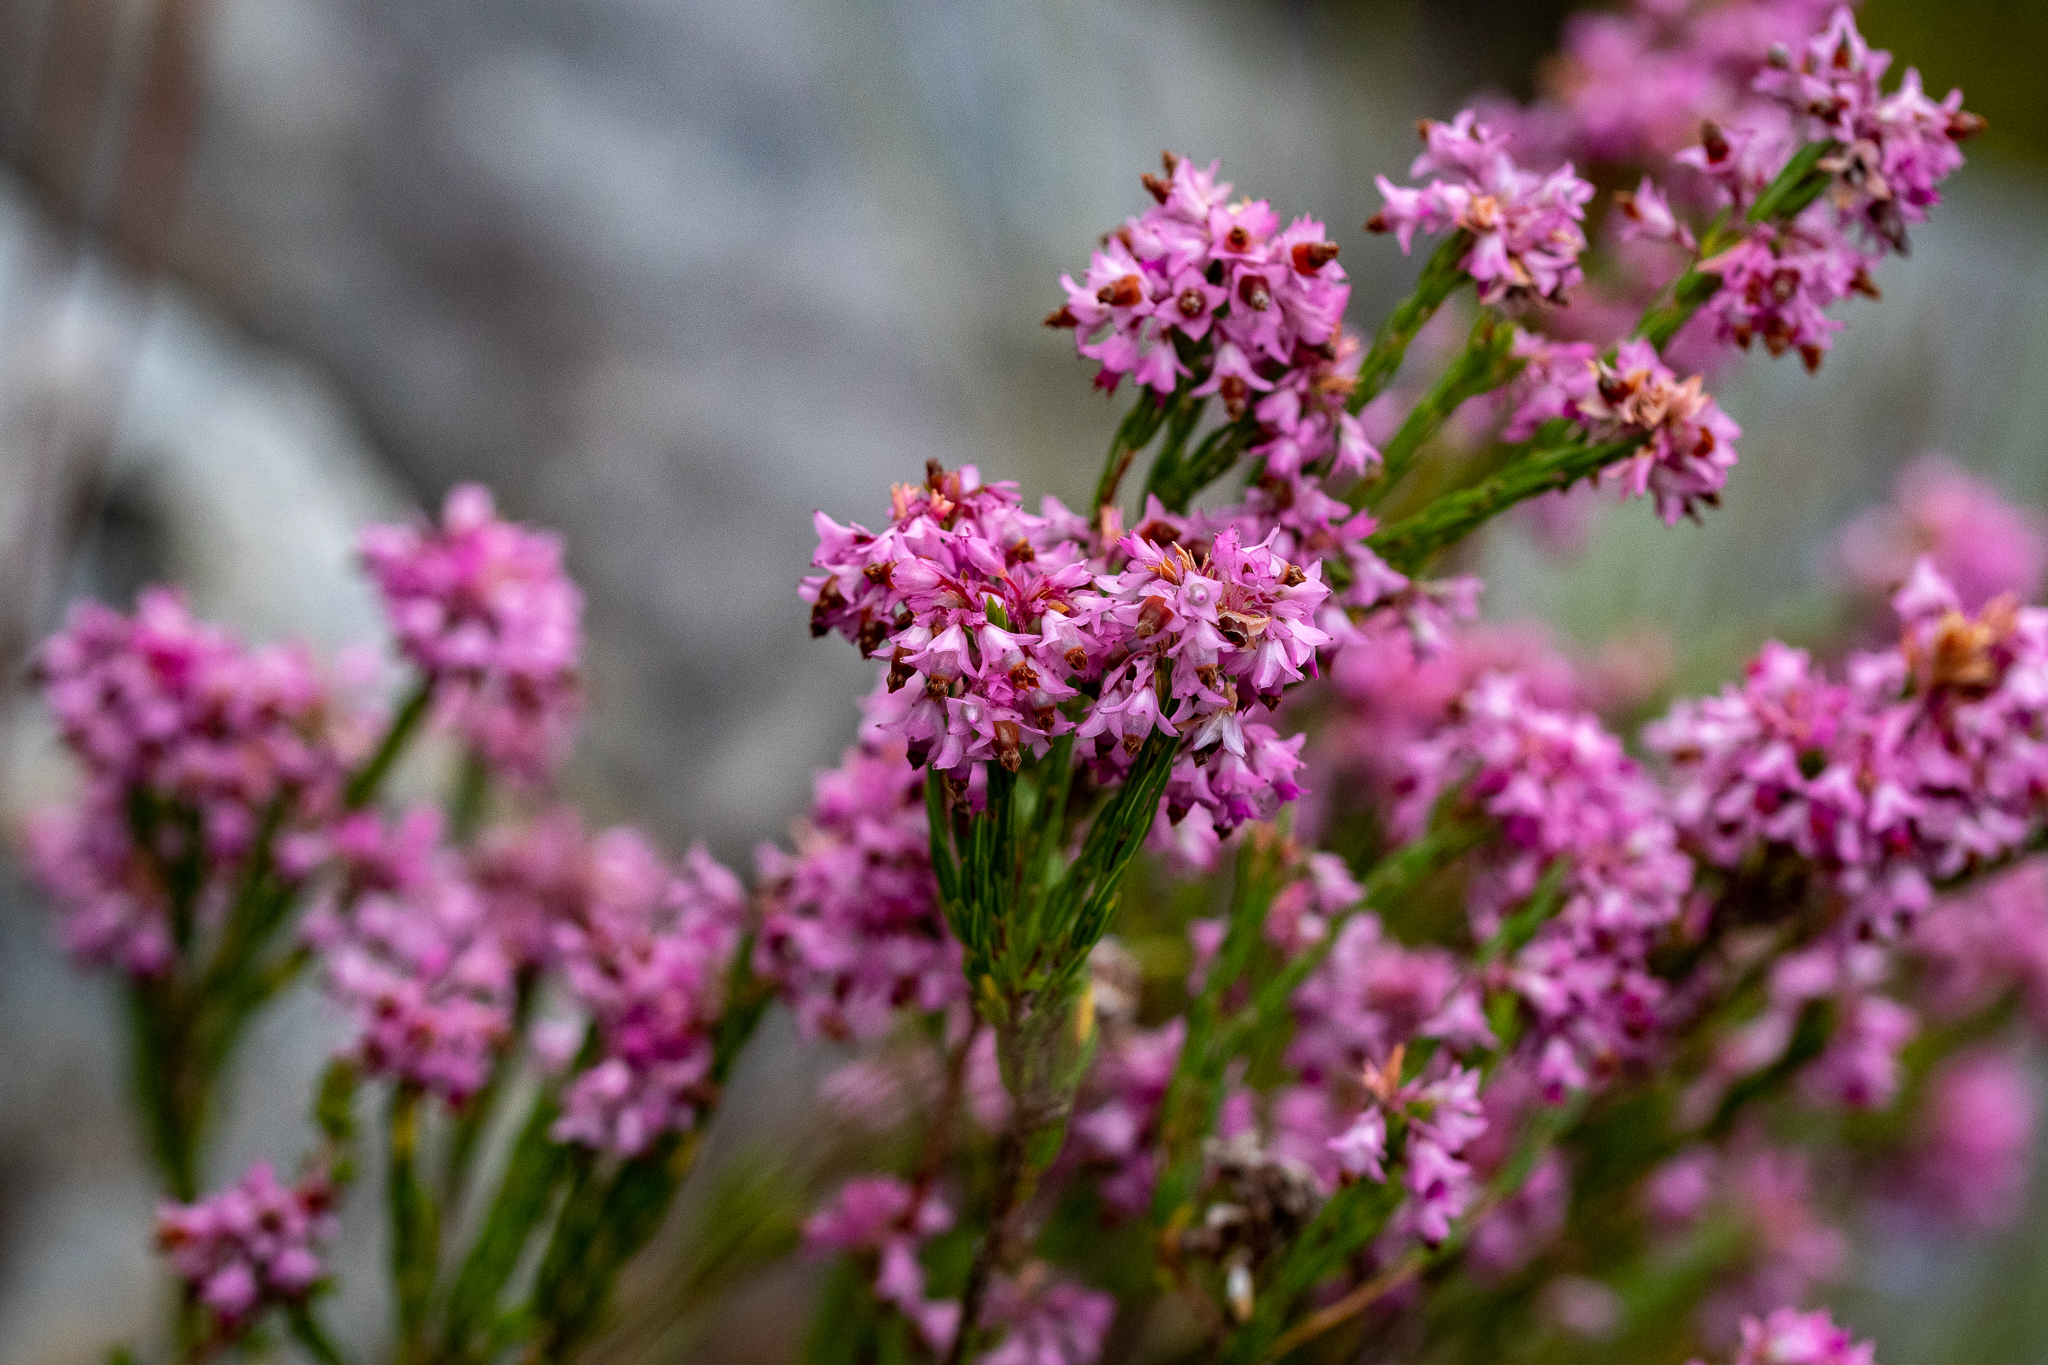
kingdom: Plantae
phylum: Tracheophyta
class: Magnoliopsida
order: Ericales
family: Ericaceae
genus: Erica
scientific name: Erica corifolia
